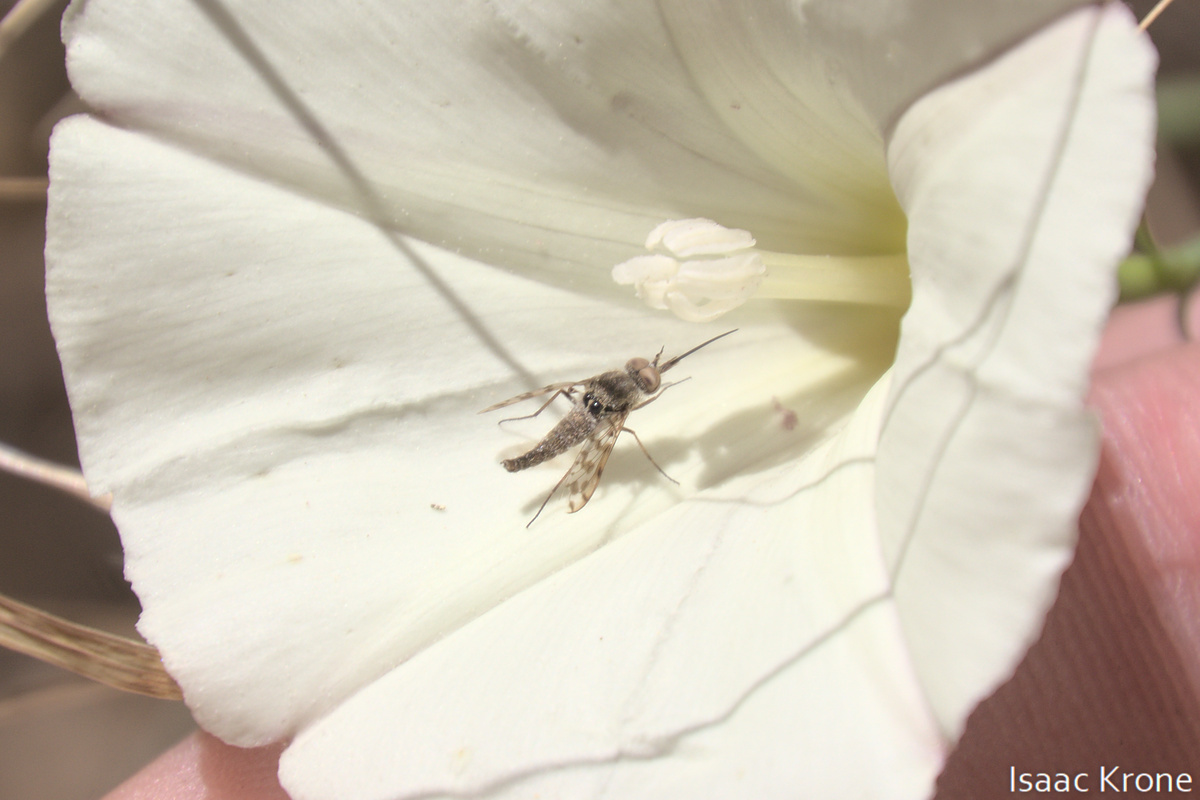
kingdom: Animalia
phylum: Arthropoda
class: Insecta
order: Diptera
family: Bombyliidae
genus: Geminaria
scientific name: Geminaria canalis
